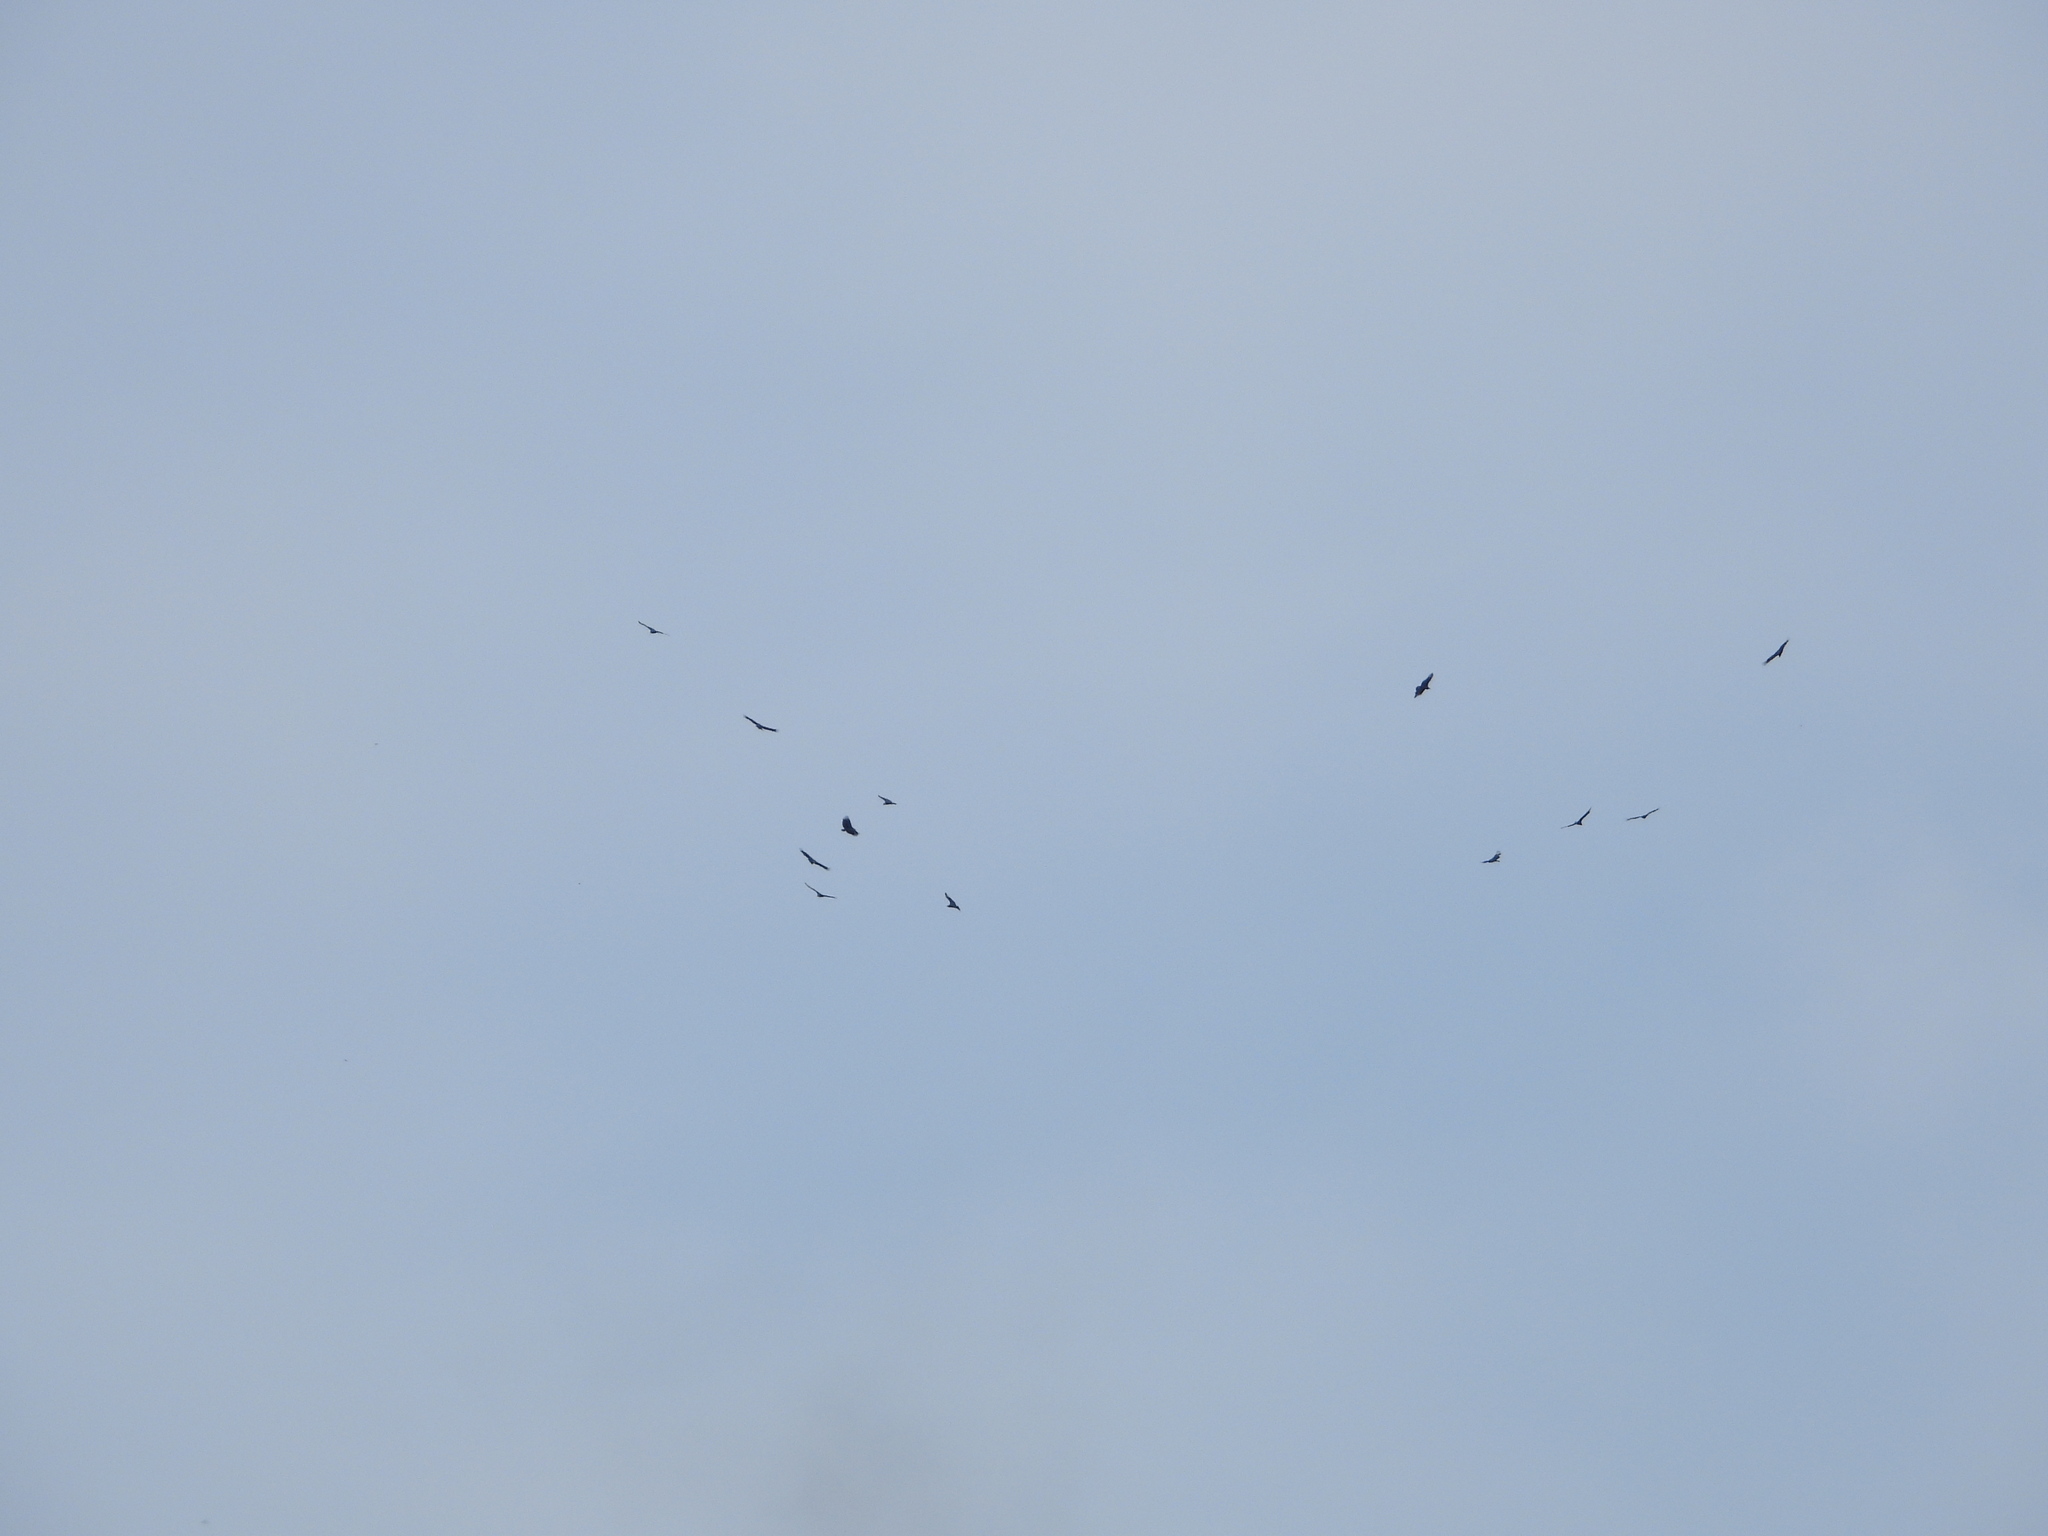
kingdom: Animalia
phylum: Chordata
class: Aves
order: Accipitriformes
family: Cathartidae
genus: Coragyps
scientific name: Coragyps atratus
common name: Black vulture
